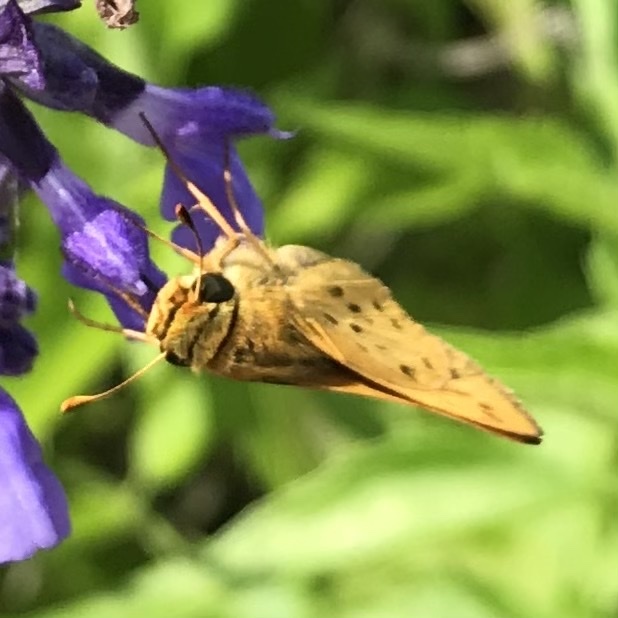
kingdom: Animalia
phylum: Arthropoda
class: Insecta
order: Lepidoptera
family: Hesperiidae
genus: Hylephila
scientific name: Hylephila phyleus
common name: Fiery skipper
